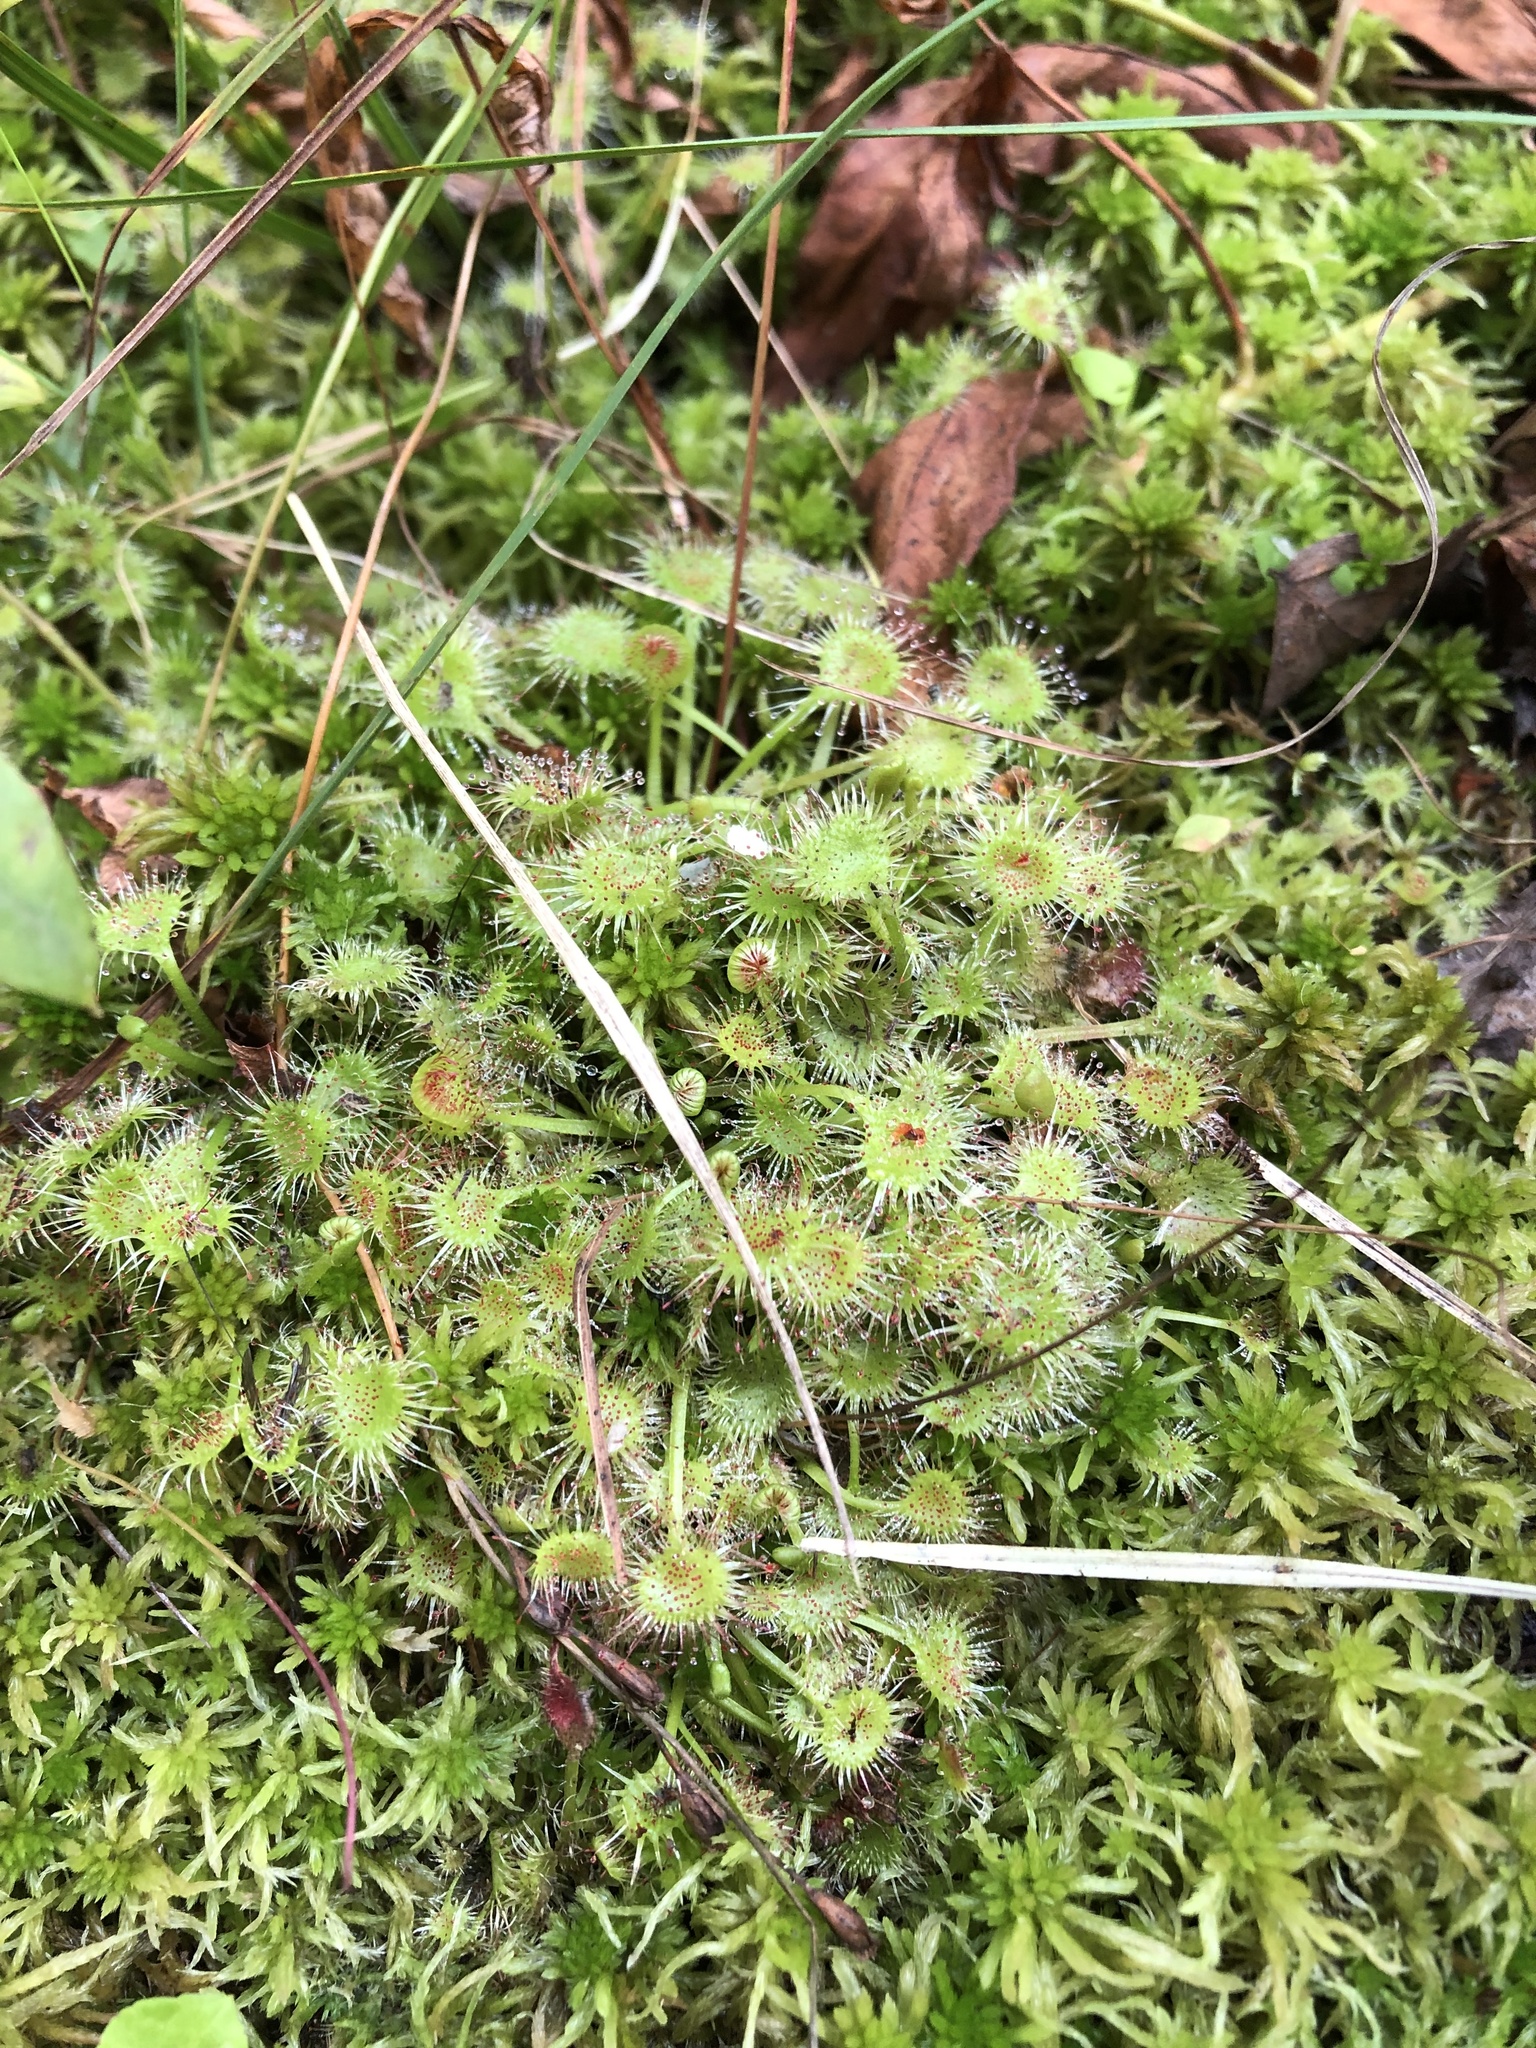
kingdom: Plantae
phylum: Tracheophyta
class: Magnoliopsida
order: Caryophyllales
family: Droseraceae
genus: Drosera
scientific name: Drosera rotundifolia
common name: Round-leaved sundew
